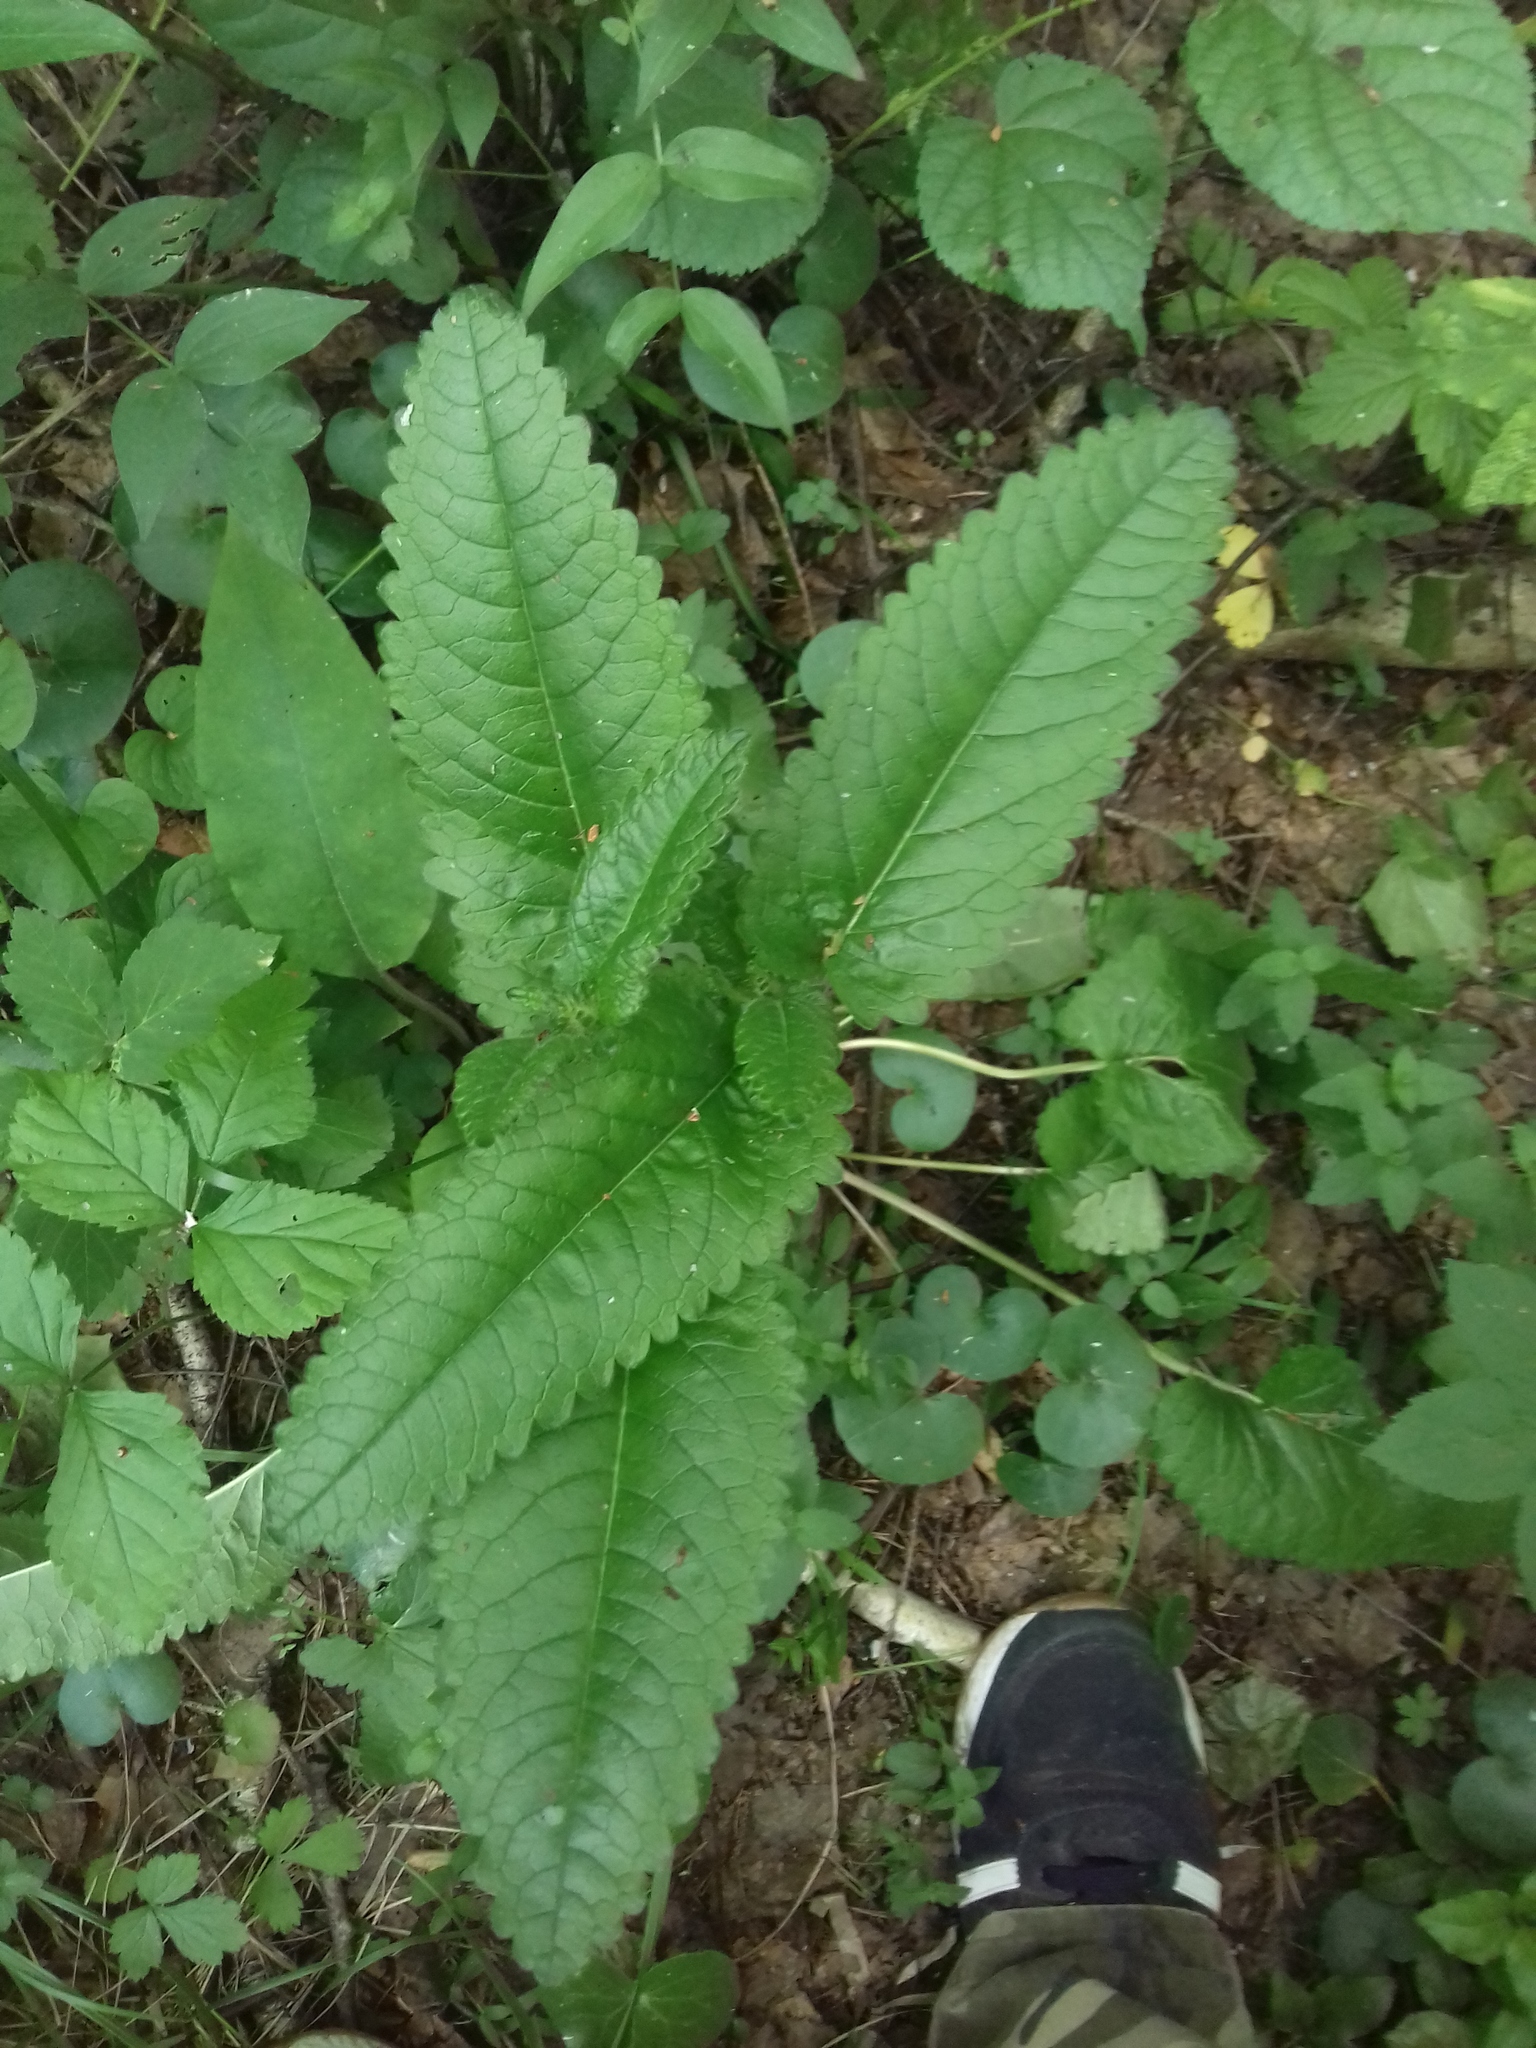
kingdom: Plantae
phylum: Tracheophyta
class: Magnoliopsida
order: Lamiales
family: Lamiaceae
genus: Betonica
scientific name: Betonica officinalis
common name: Bishop's-wort
